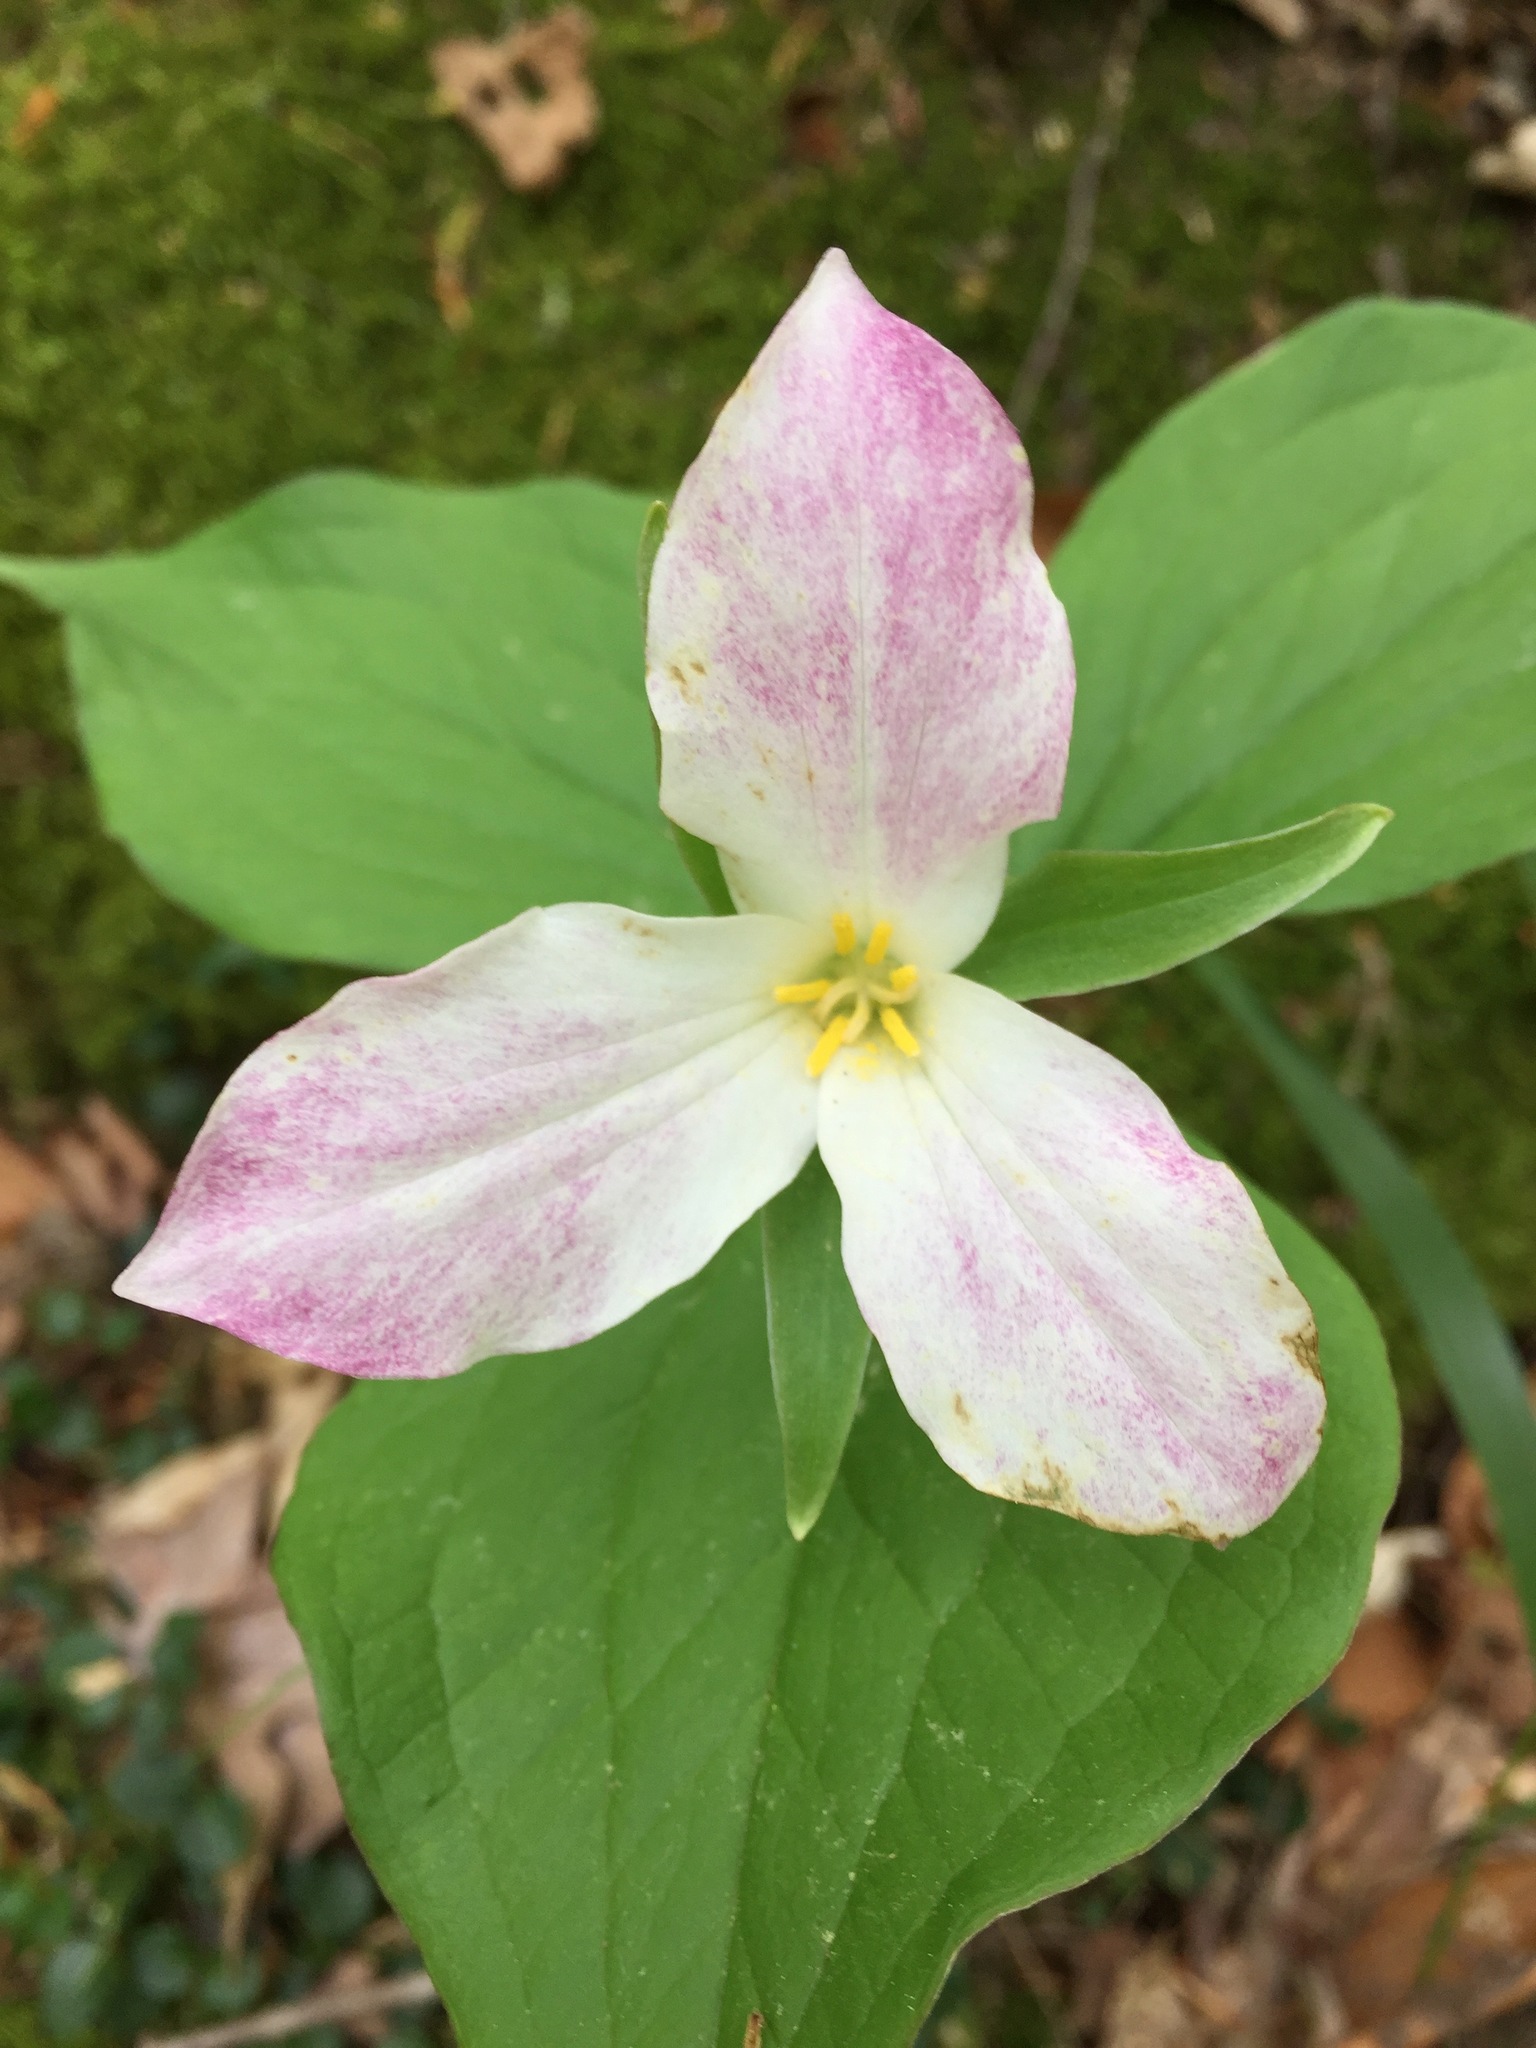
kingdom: Plantae
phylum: Tracheophyta
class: Liliopsida
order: Liliales
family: Melanthiaceae
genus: Trillium
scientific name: Trillium grandiflorum
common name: Great white trillium
